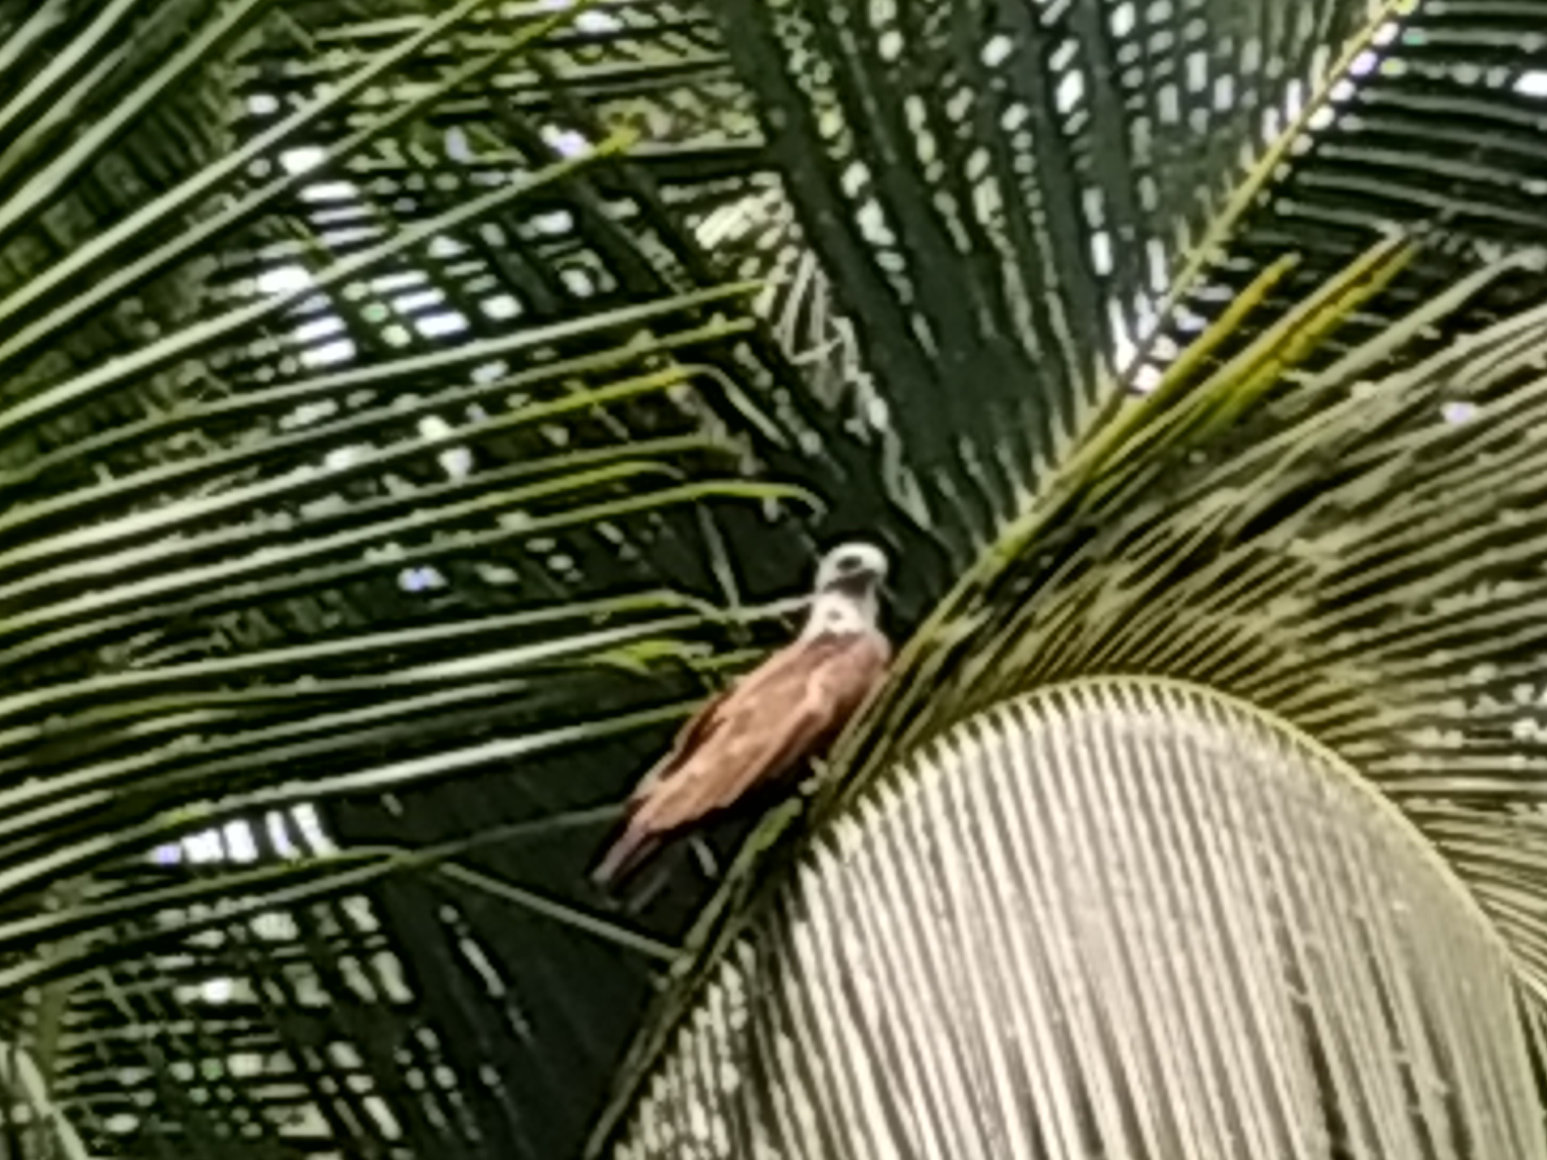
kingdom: Animalia
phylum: Chordata
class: Aves
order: Accipitriformes
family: Accipitridae
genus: Haliastur
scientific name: Haliastur indus
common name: Brahminy kite
